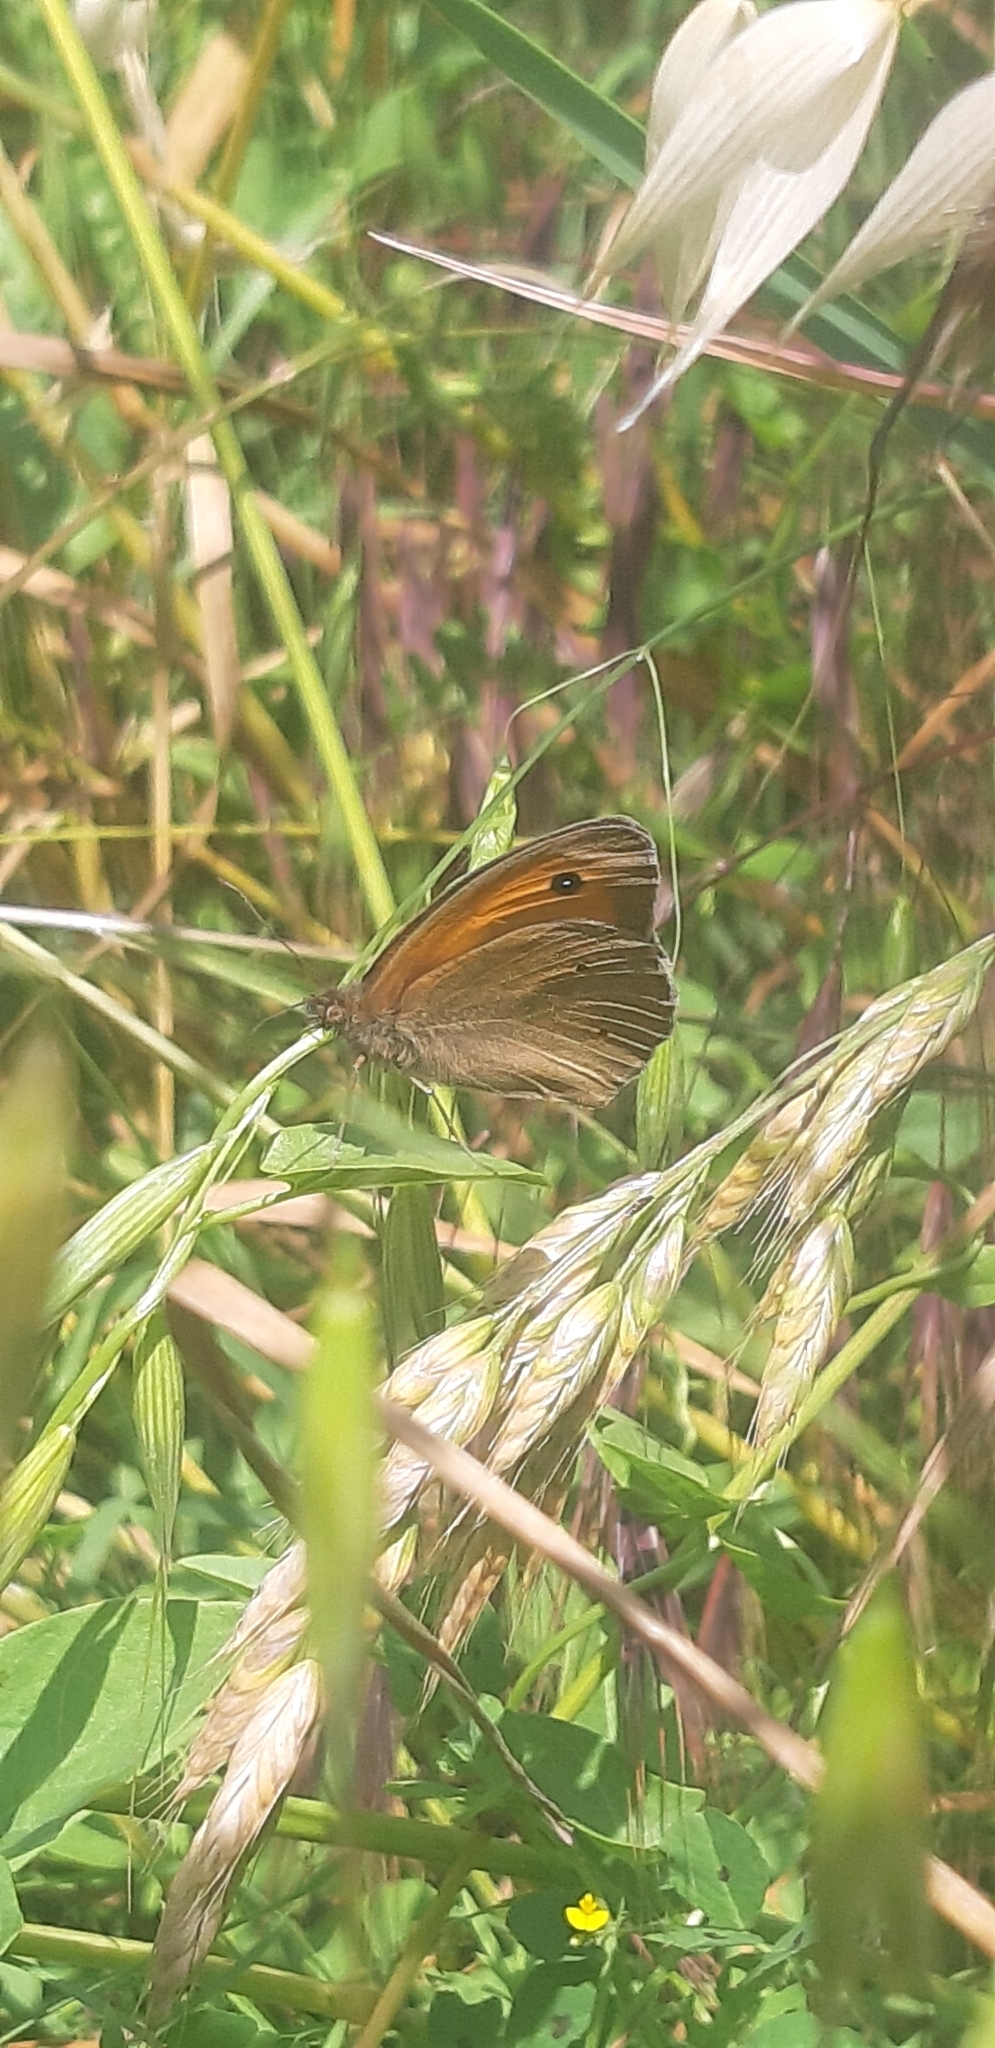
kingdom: Animalia
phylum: Arthropoda
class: Insecta
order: Lepidoptera
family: Nymphalidae
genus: Maniola
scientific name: Maniola jurtina
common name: Meadow brown
